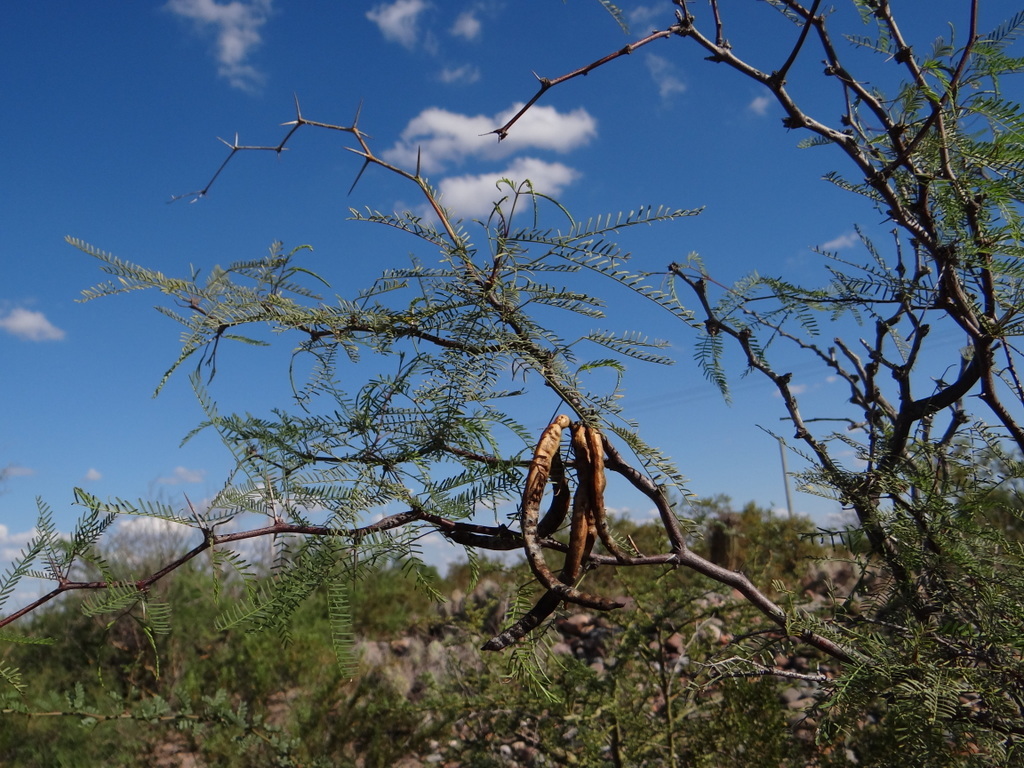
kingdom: Plantae
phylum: Tracheophyta
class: Magnoliopsida
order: Fabales
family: Fabaceae
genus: Prosopis
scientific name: Prosopis flexuosa
